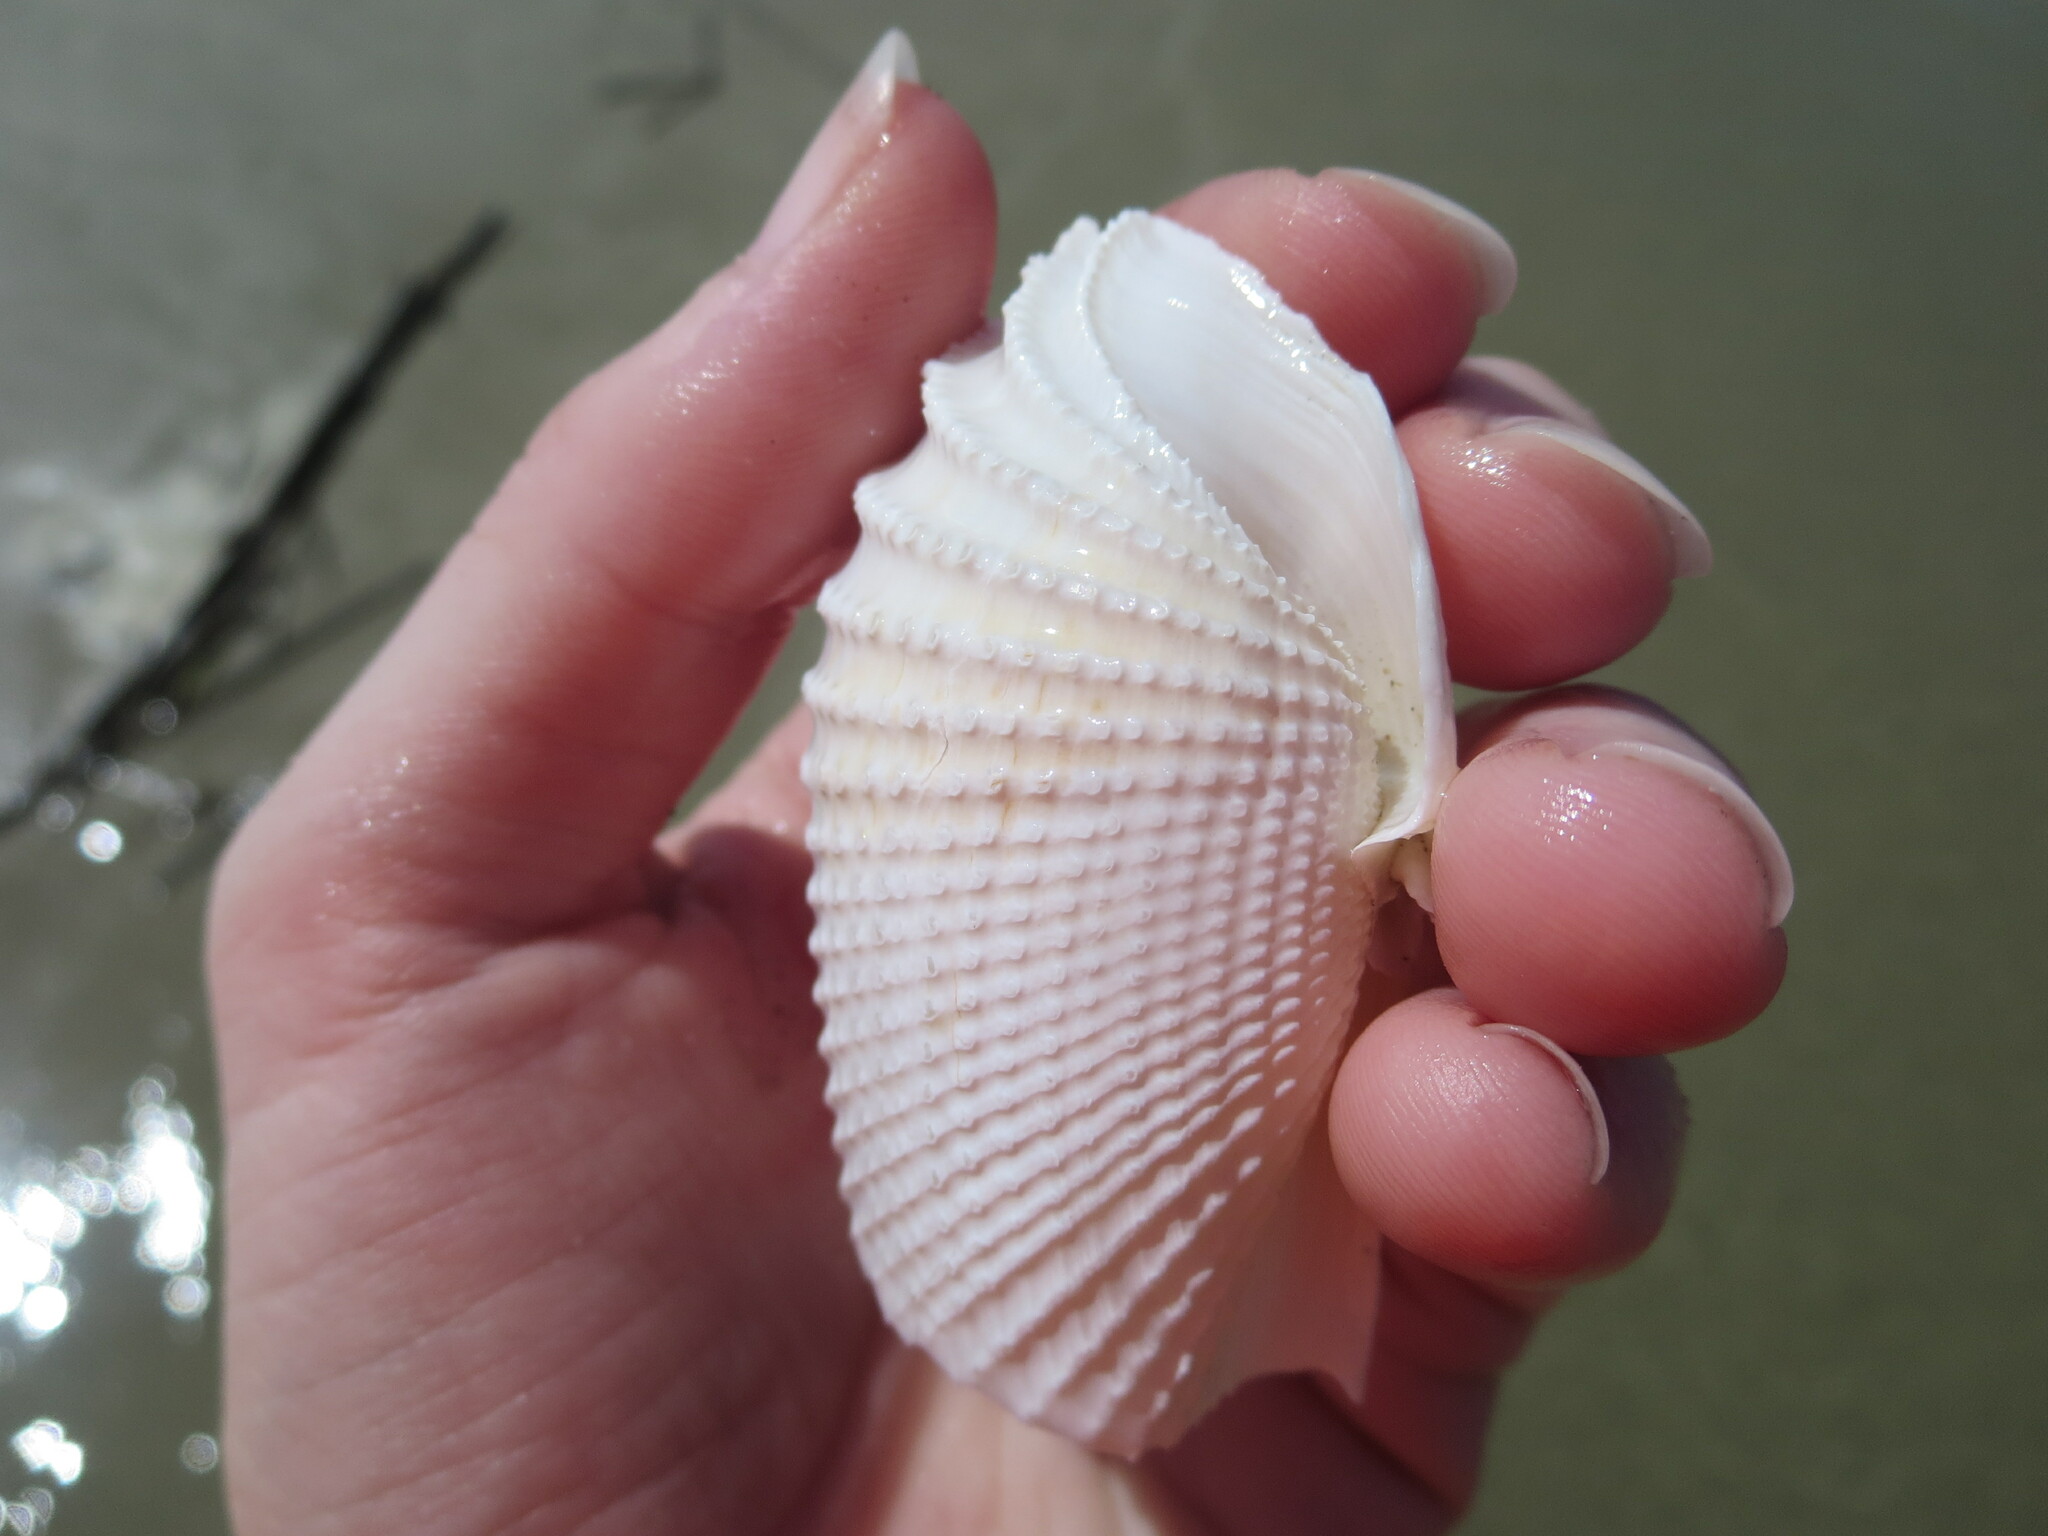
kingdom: Animalia
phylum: Mollusca
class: Bivalvia
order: Myida
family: Pholadidae
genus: Cyrtopleura
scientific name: Cyrtopleura costata
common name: Angel wing
